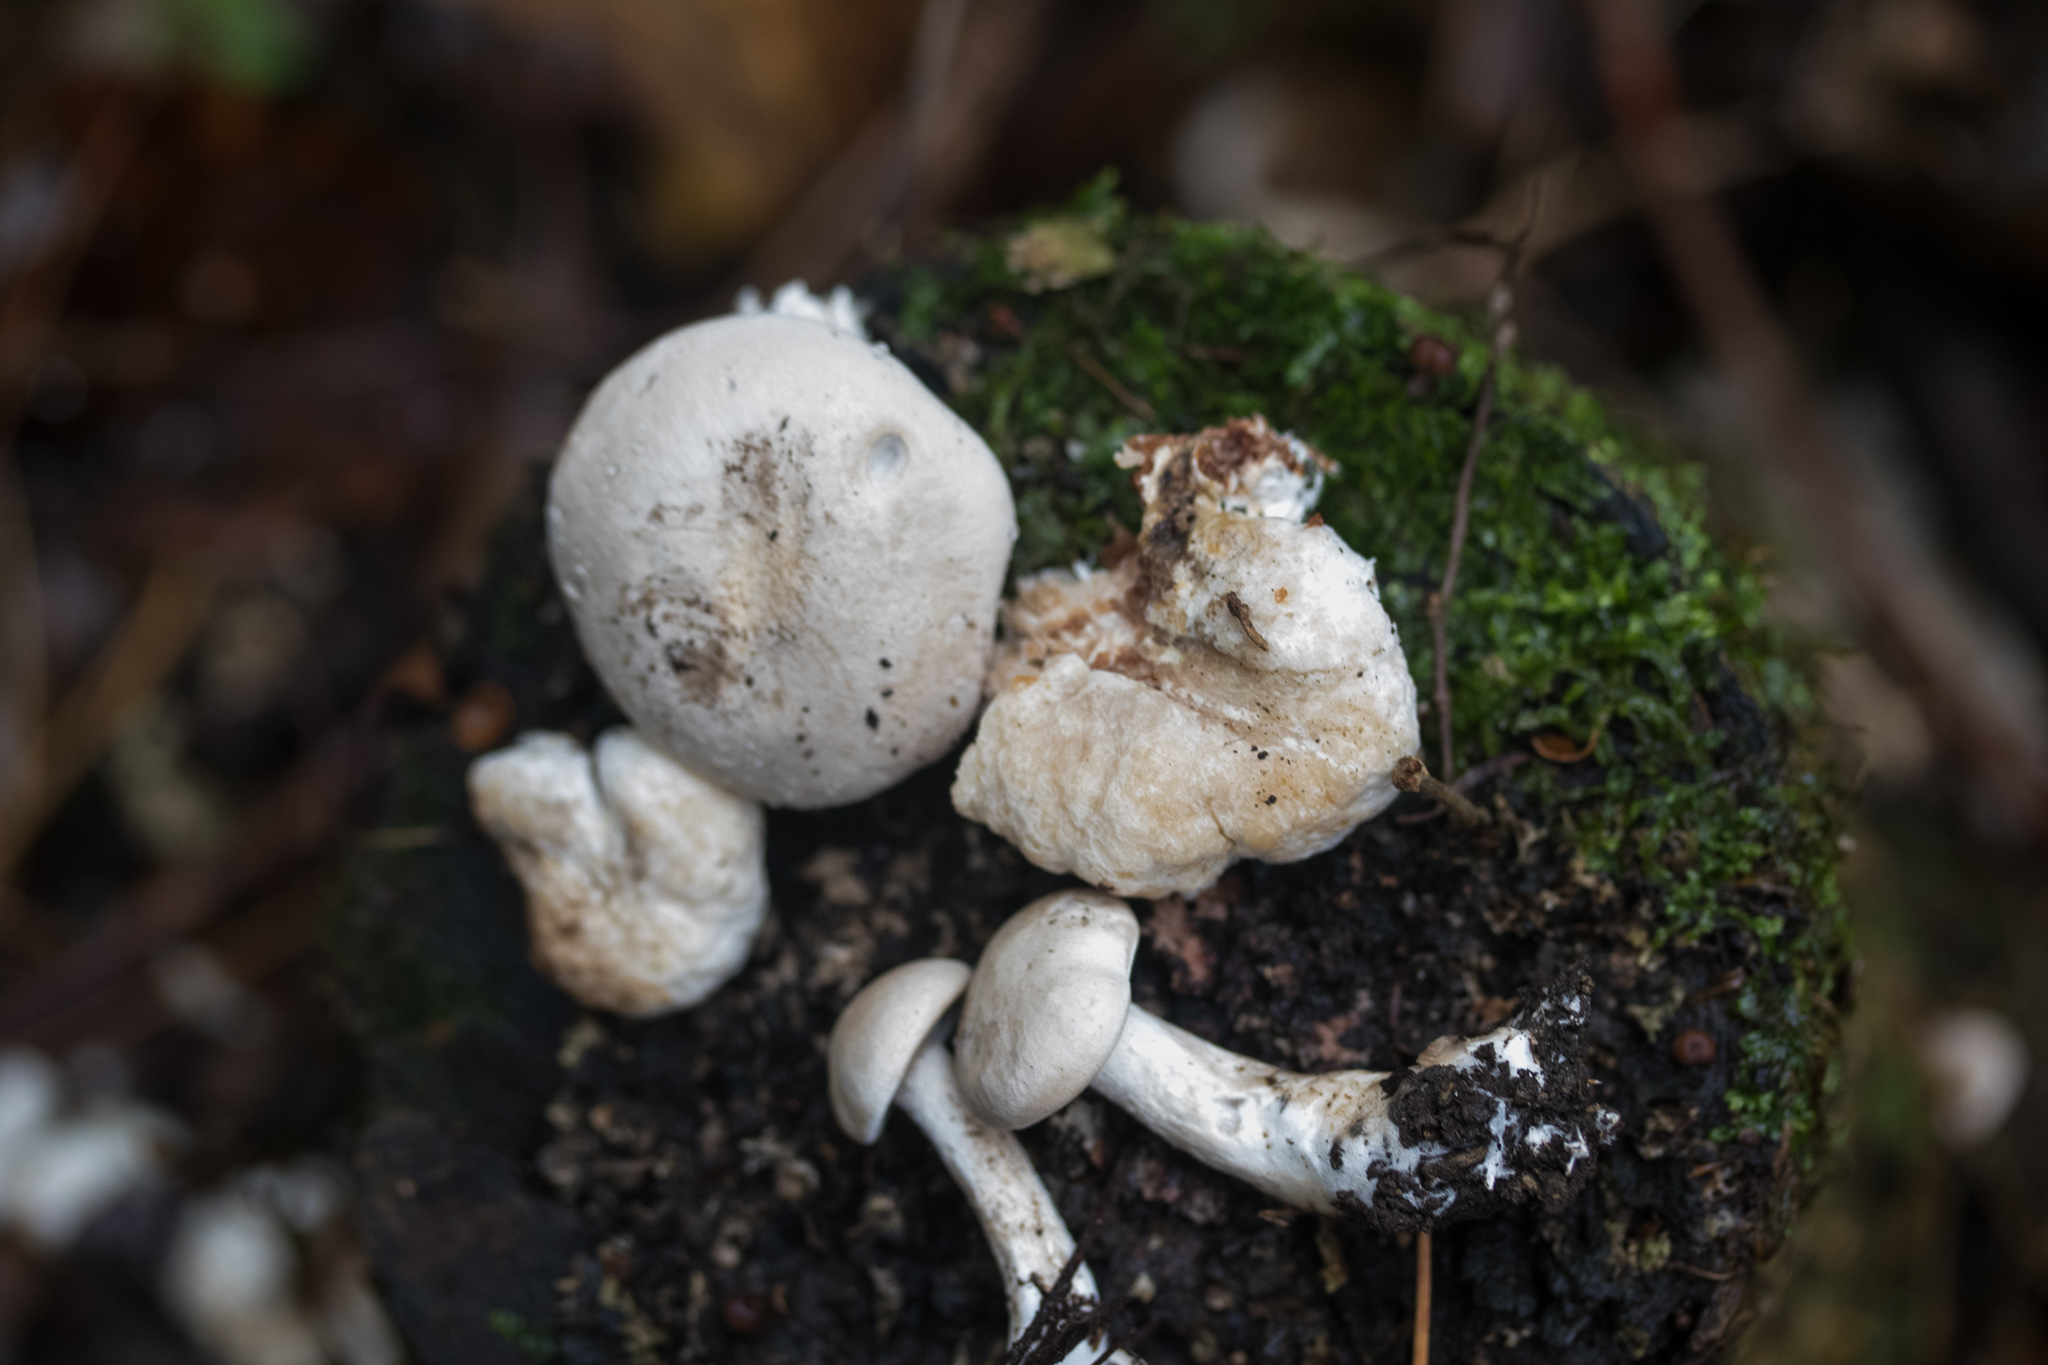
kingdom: Fungi
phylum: Basidiomycota
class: Agaricomycetes
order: Agaricales
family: Entolomataceae
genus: Entoloma
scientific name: Entoloma abortivum
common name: Aborted entoloma
